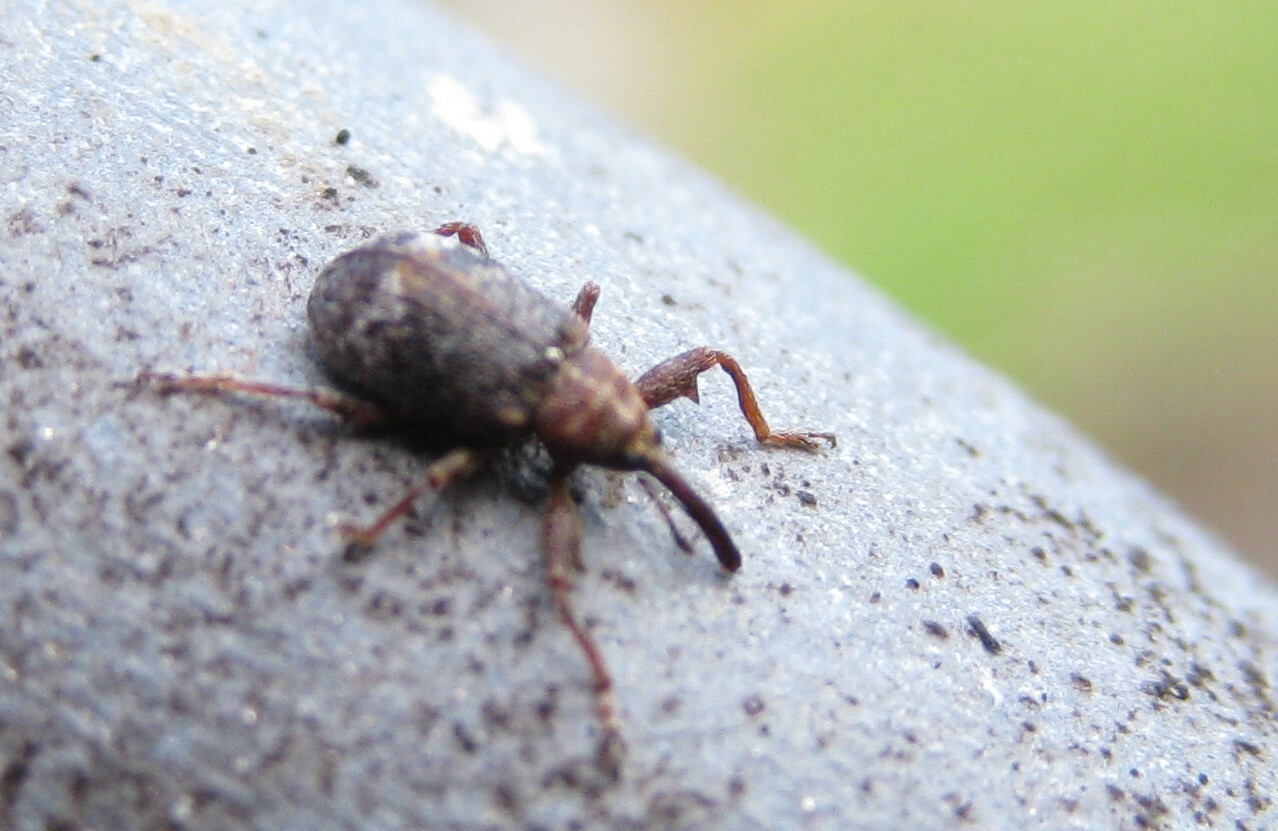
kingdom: Animalia
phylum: Arthropoda
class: Insecta
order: Coleoptera
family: Curculionidae
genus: Anthonomus
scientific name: Anthonomus bituberculatus
